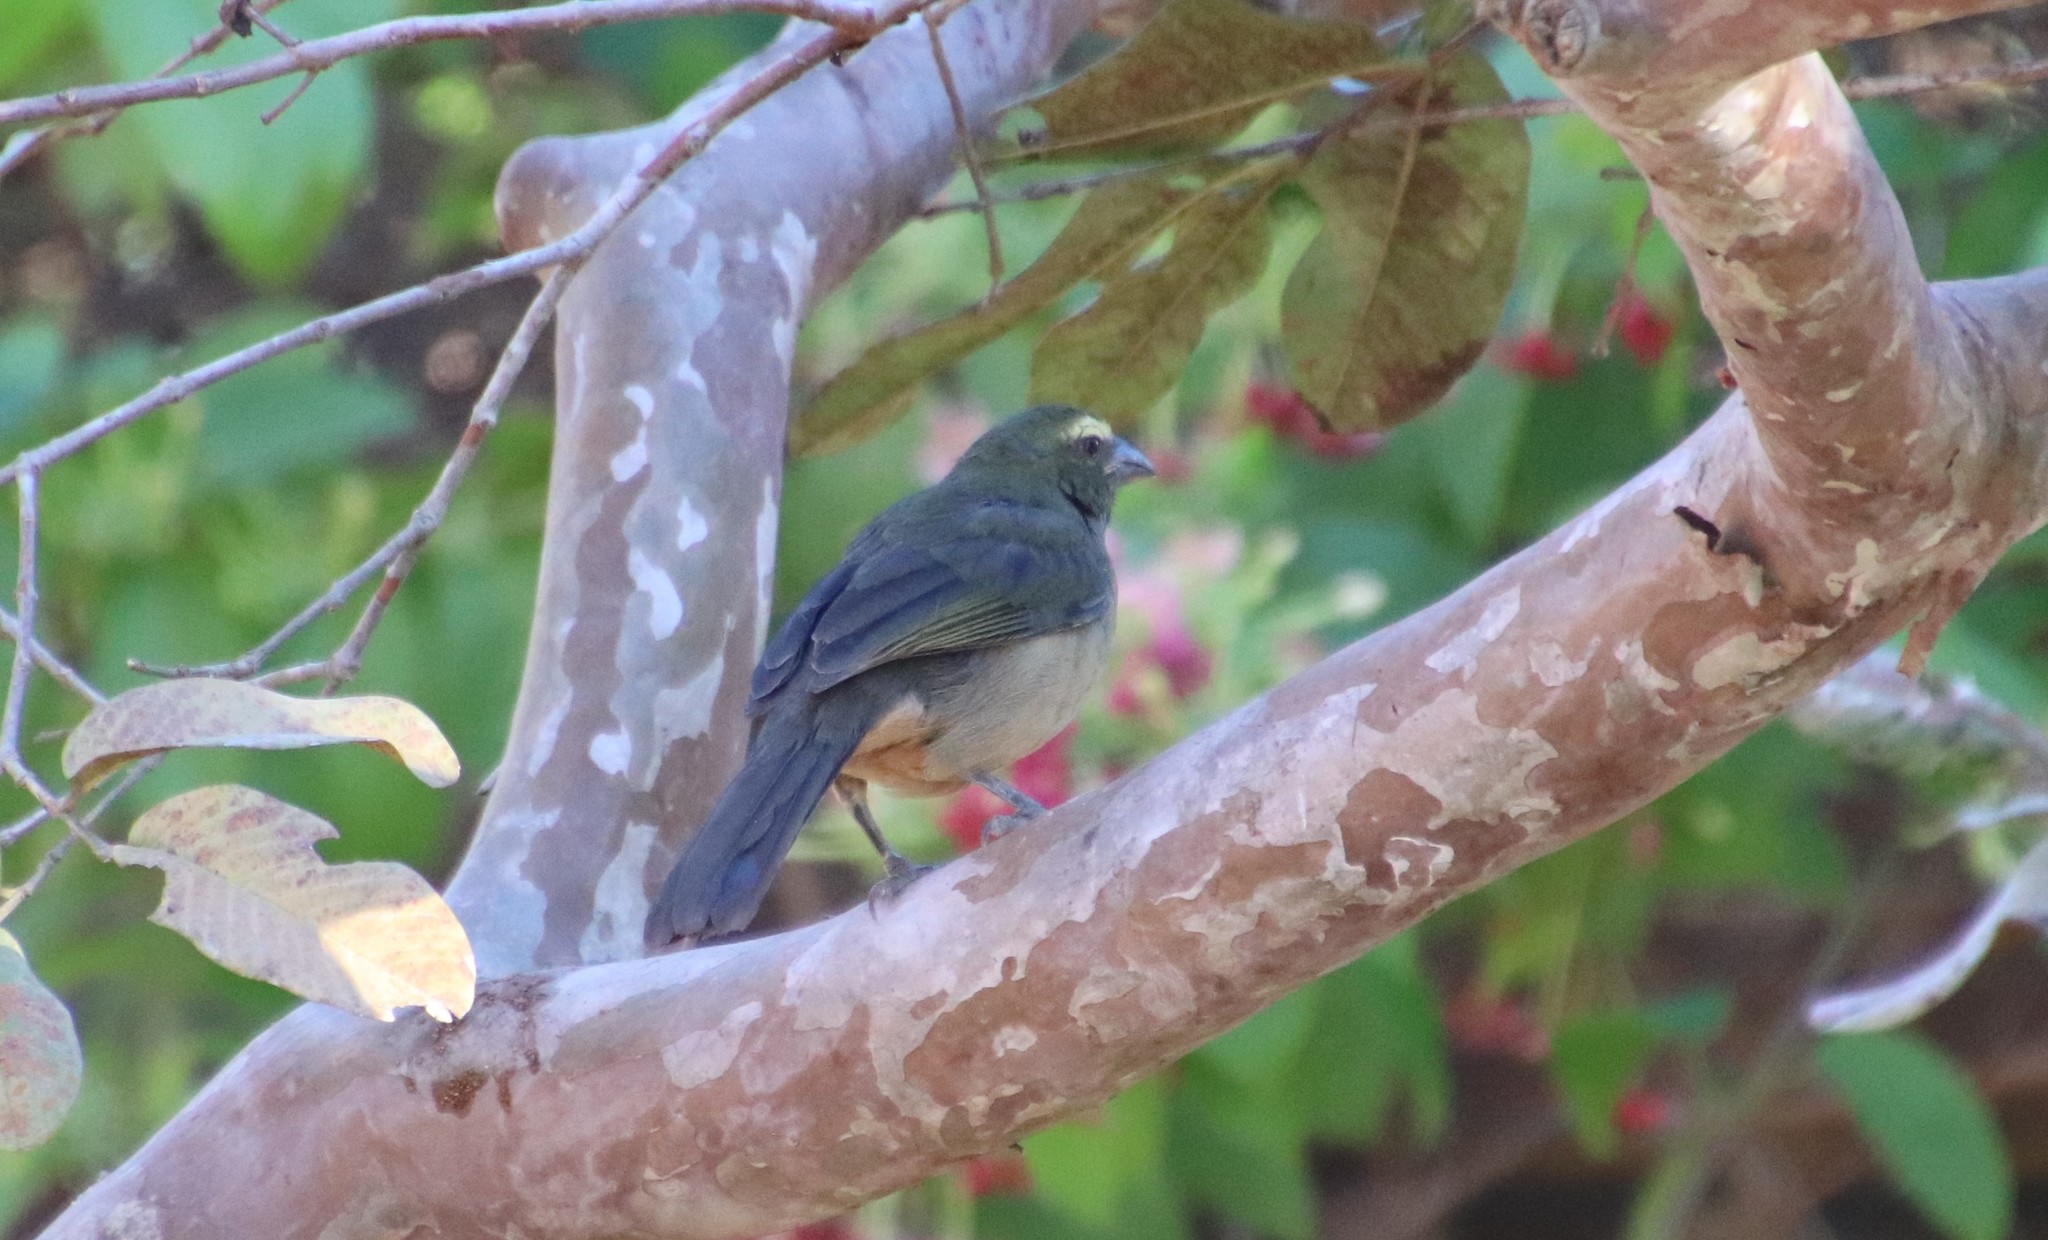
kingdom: Animalia
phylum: Chordata
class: Aves
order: Passeriformes
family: Thraupidae
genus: Saltator
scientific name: Saltator coerulescens
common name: Grayish saltator
